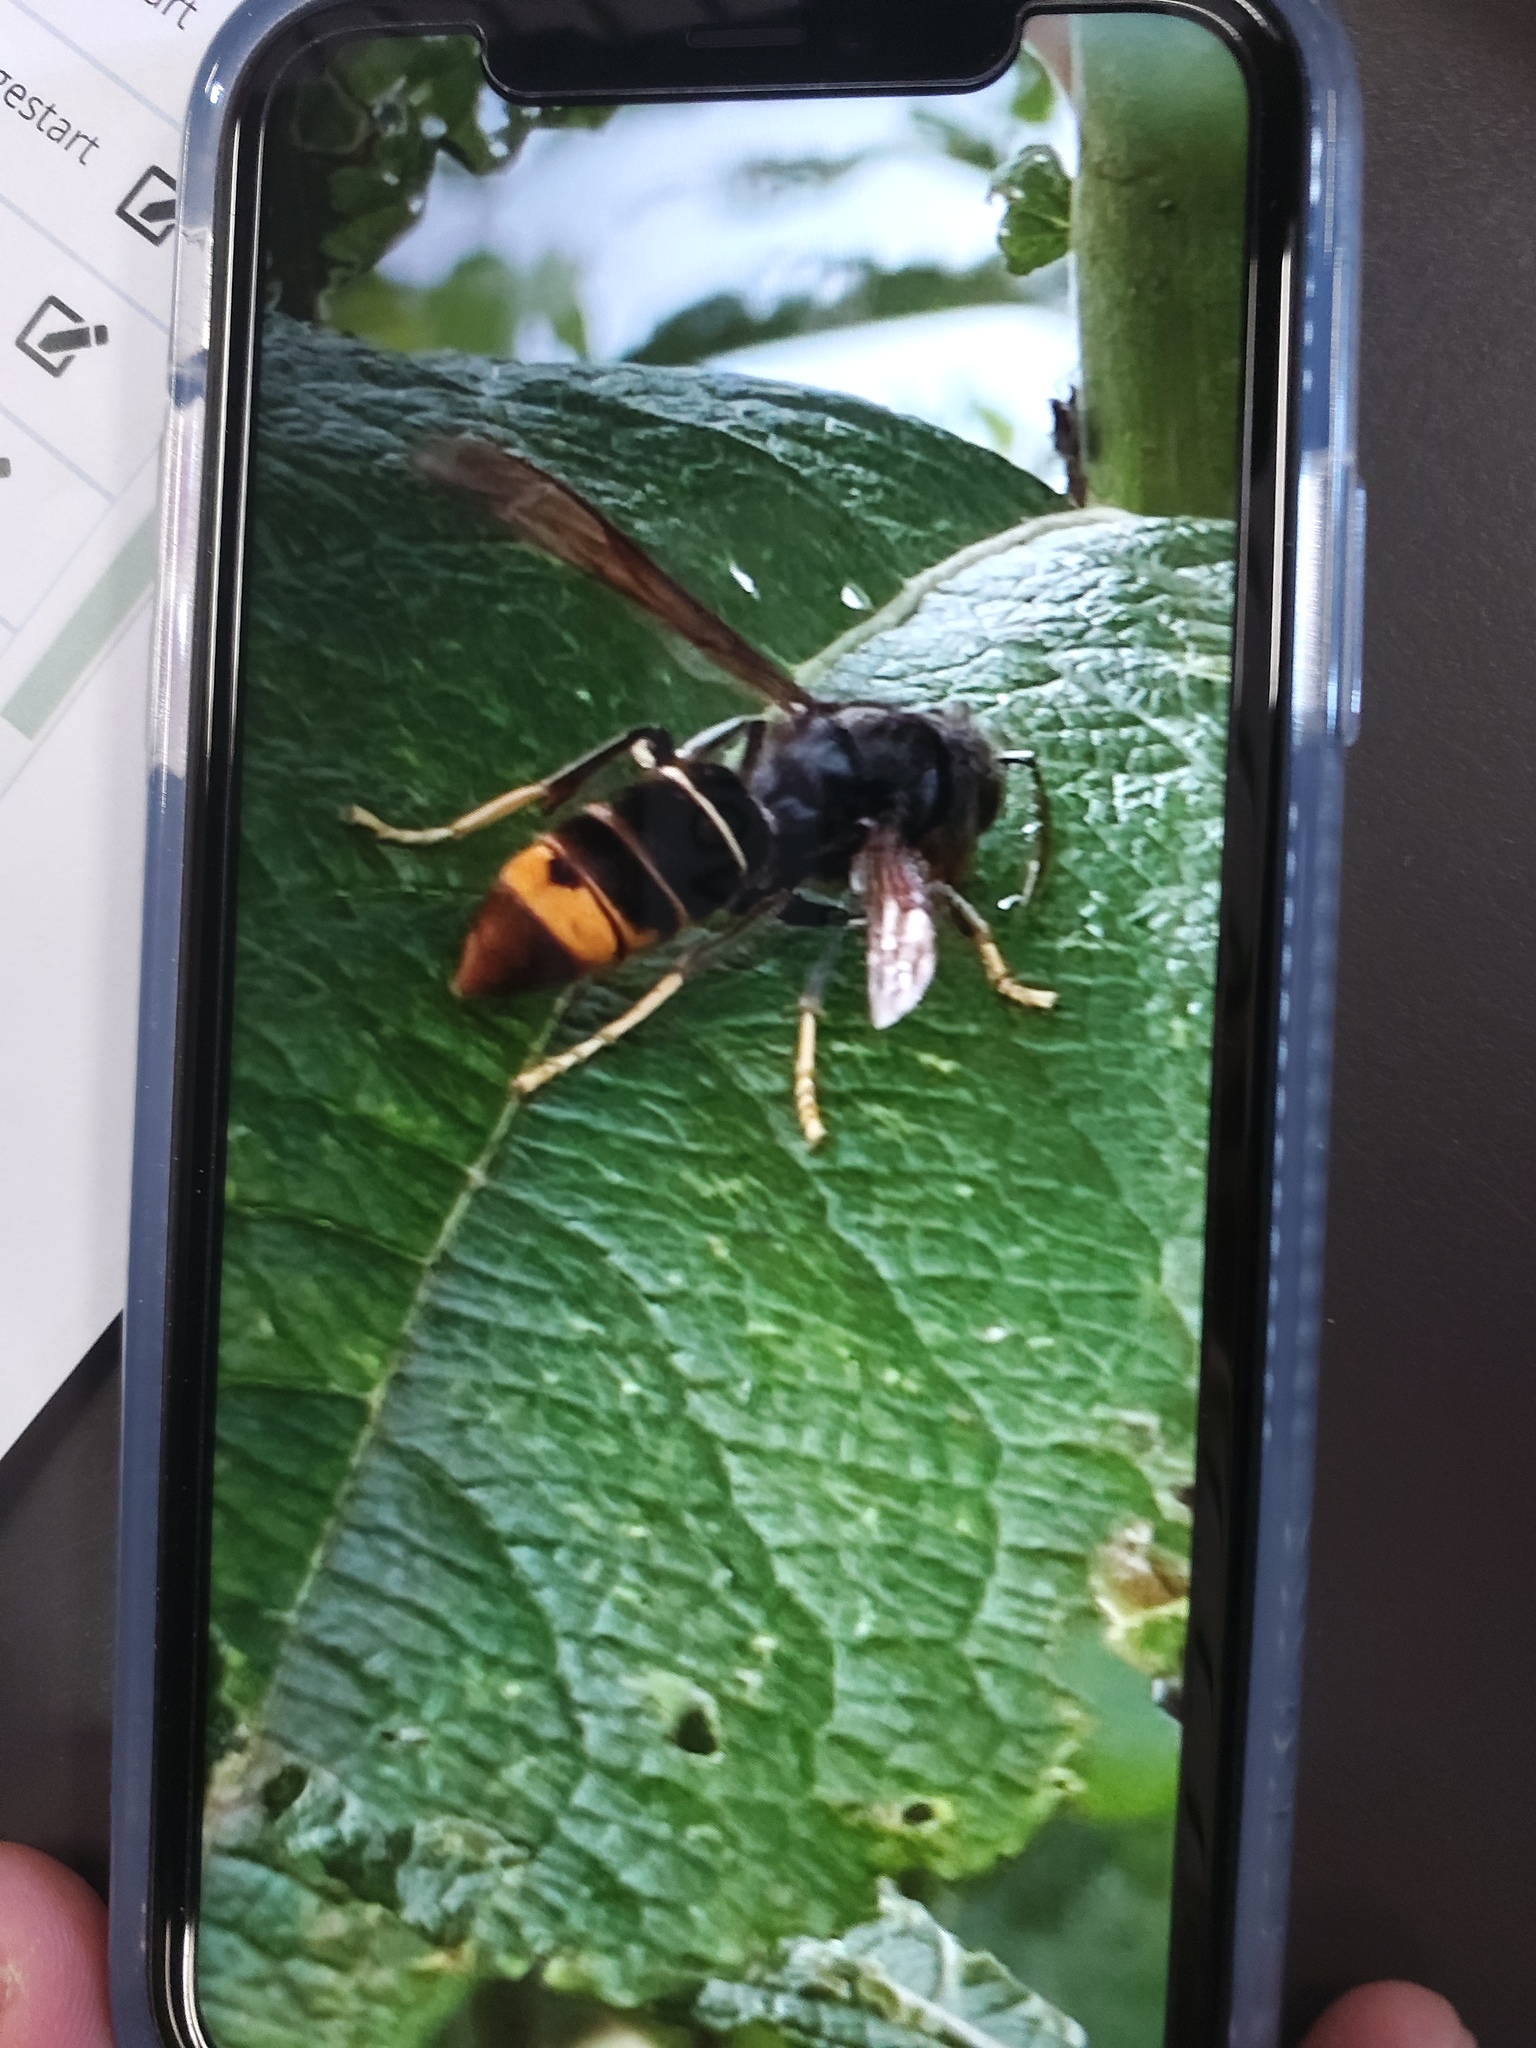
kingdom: Animalia
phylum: Arthropoda
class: Insecta
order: Hymenoptera
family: Vespidae
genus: Vespa
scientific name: Vespa velutina
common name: Asian hornet
